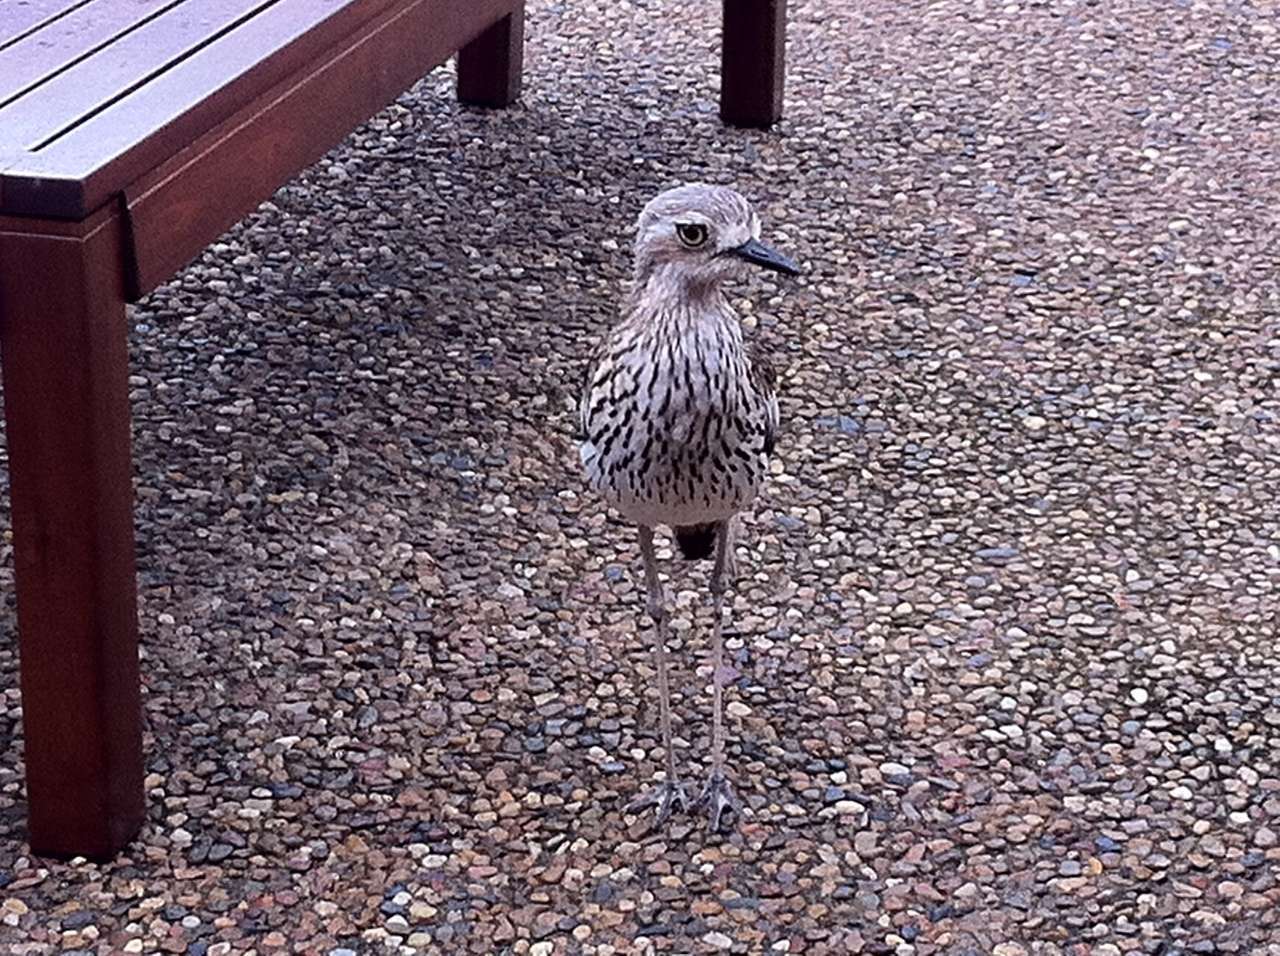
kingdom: Animalia
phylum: Chordata
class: Aves
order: Charadriiformes
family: Burhinidae
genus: Burhinus
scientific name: Burhinus grallarius
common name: Bush stone-curlew
